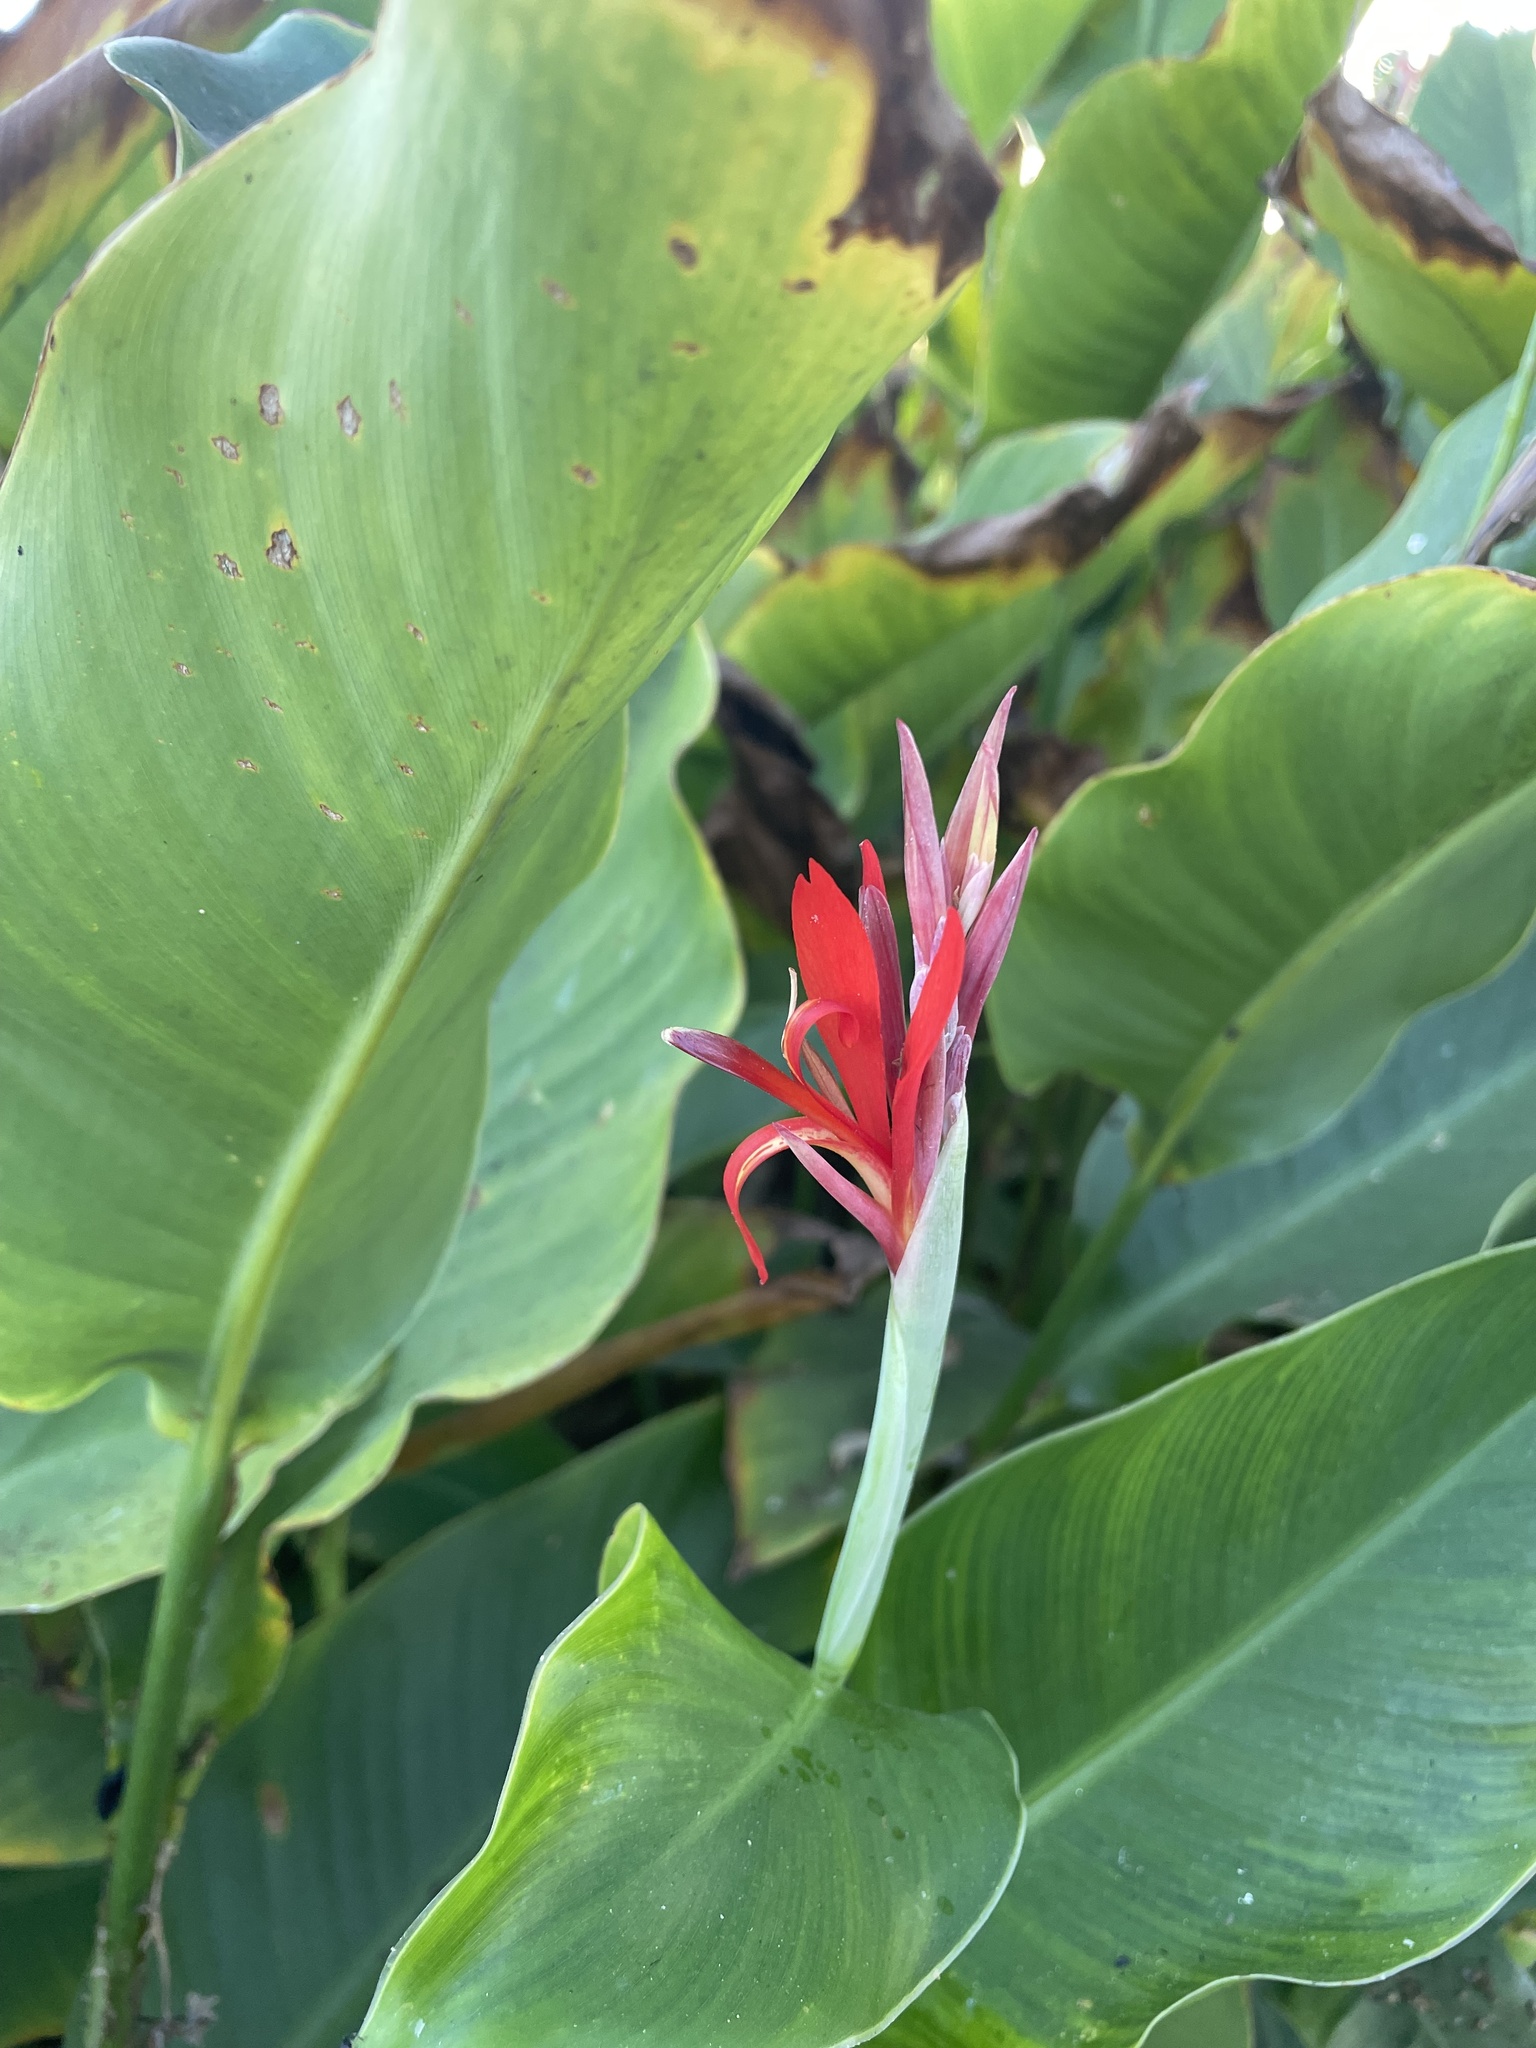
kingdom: Plantae
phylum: Tracheophyta
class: Liliopsida
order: Zingiberales
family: Cannaceae
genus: Canna
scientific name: Canna indica
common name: Indian shot
